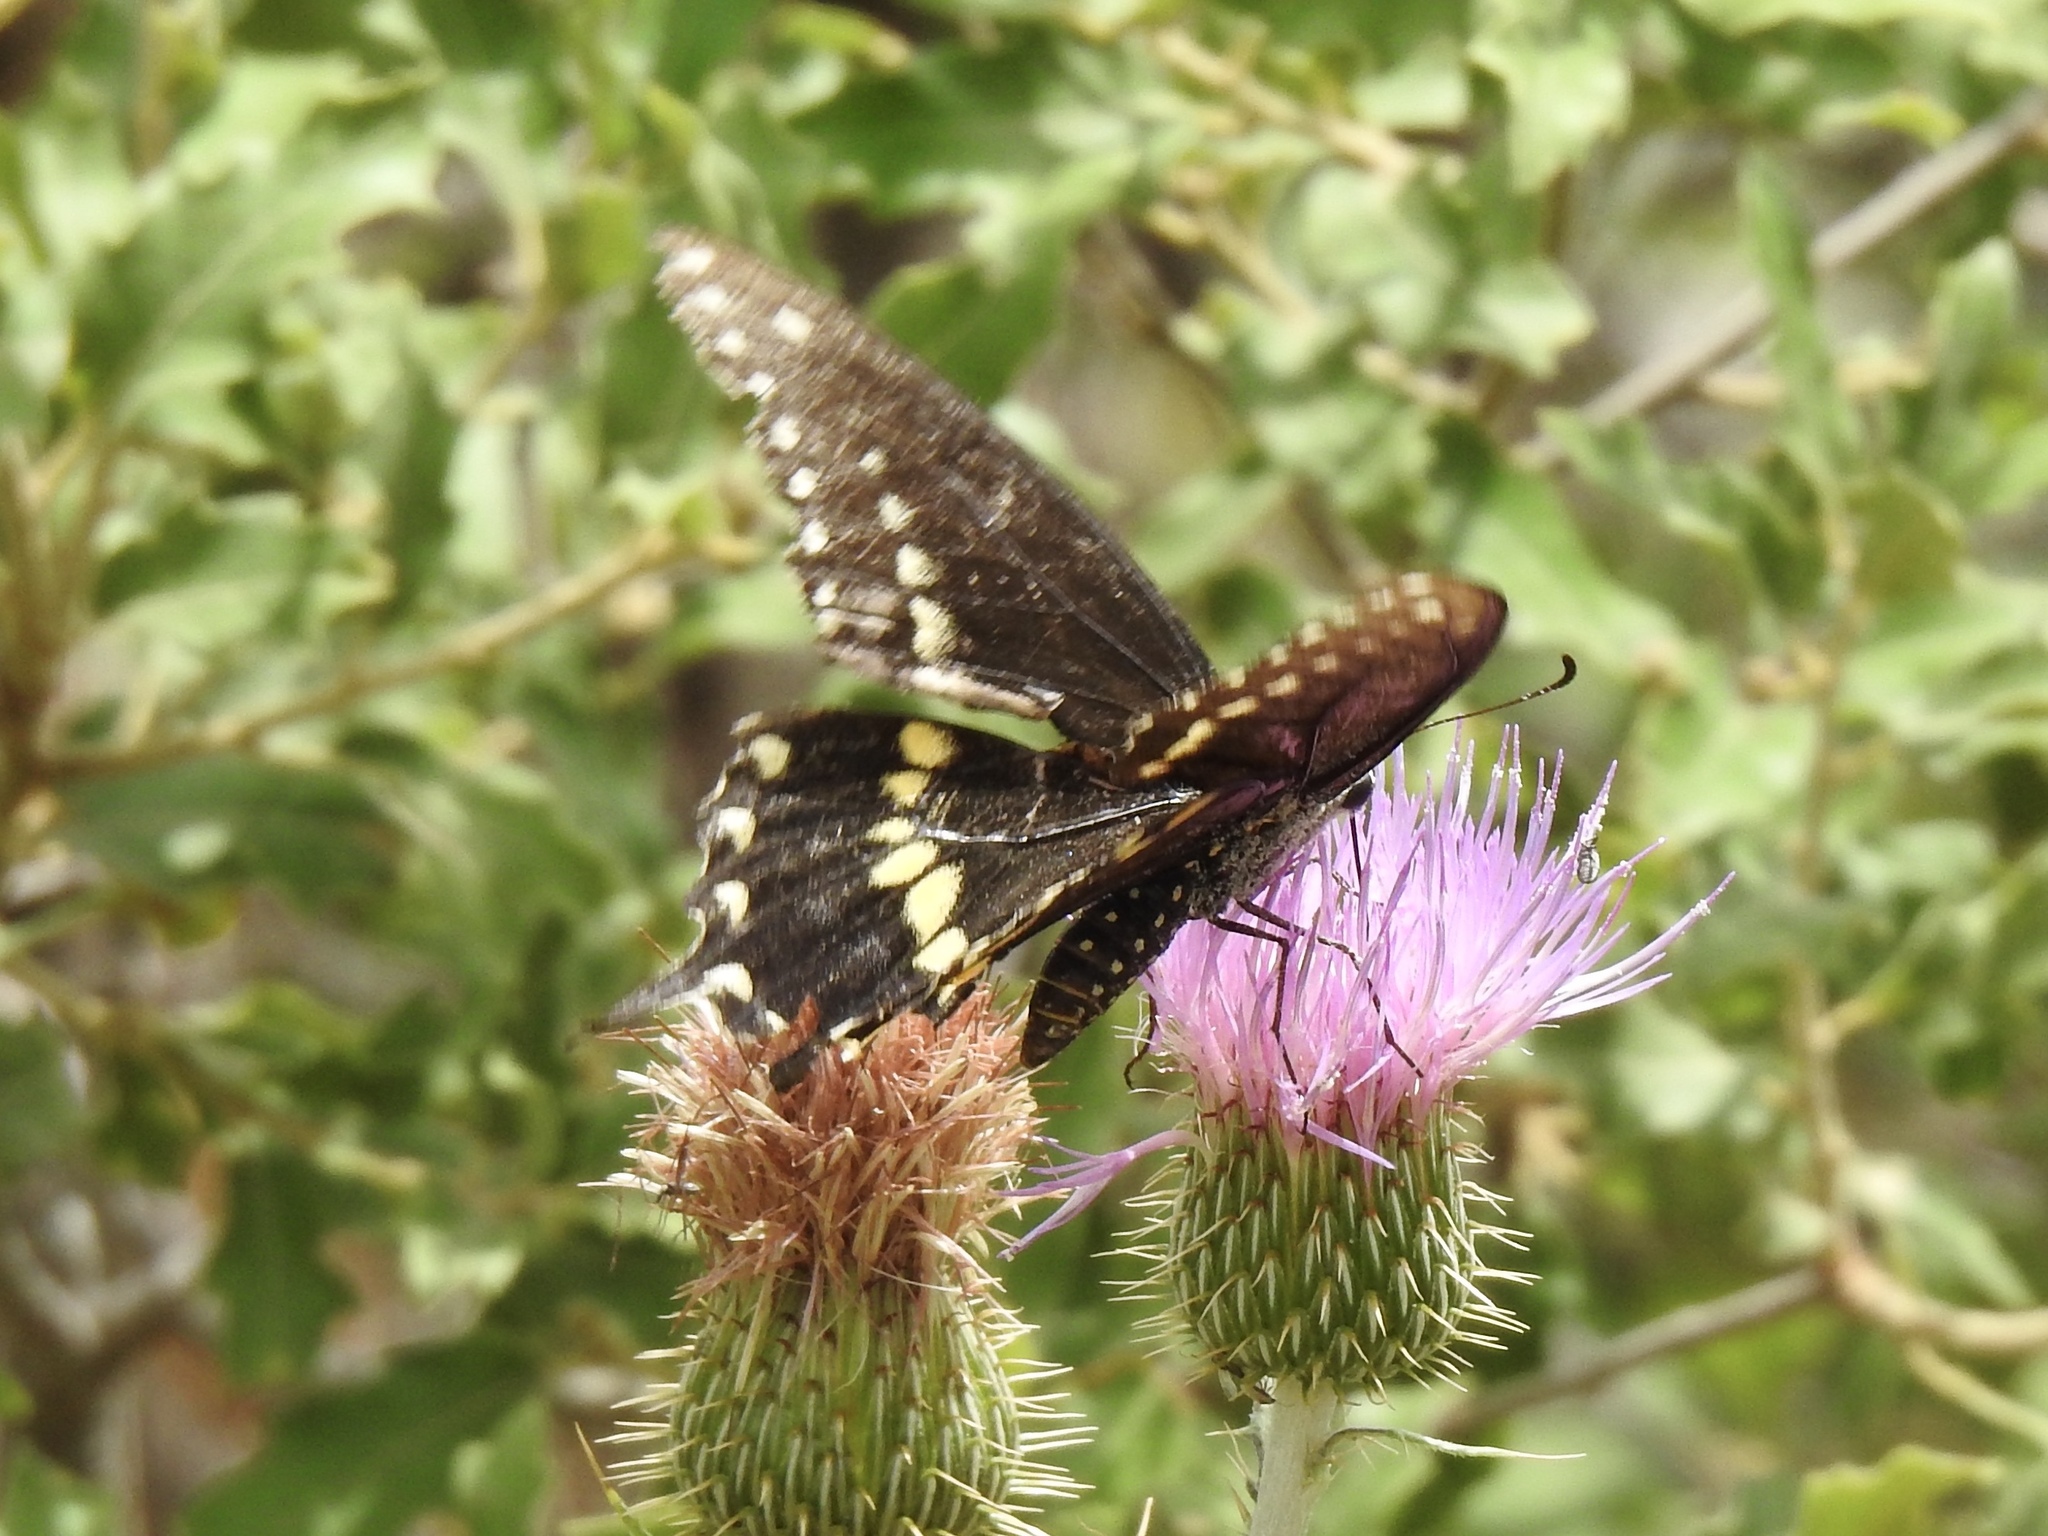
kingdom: Animalia
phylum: Arthropoda
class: Insecta
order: Lepidoptera
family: Papilionidae
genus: Papilio
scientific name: Papilio polyxenes
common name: Black swallowtail
